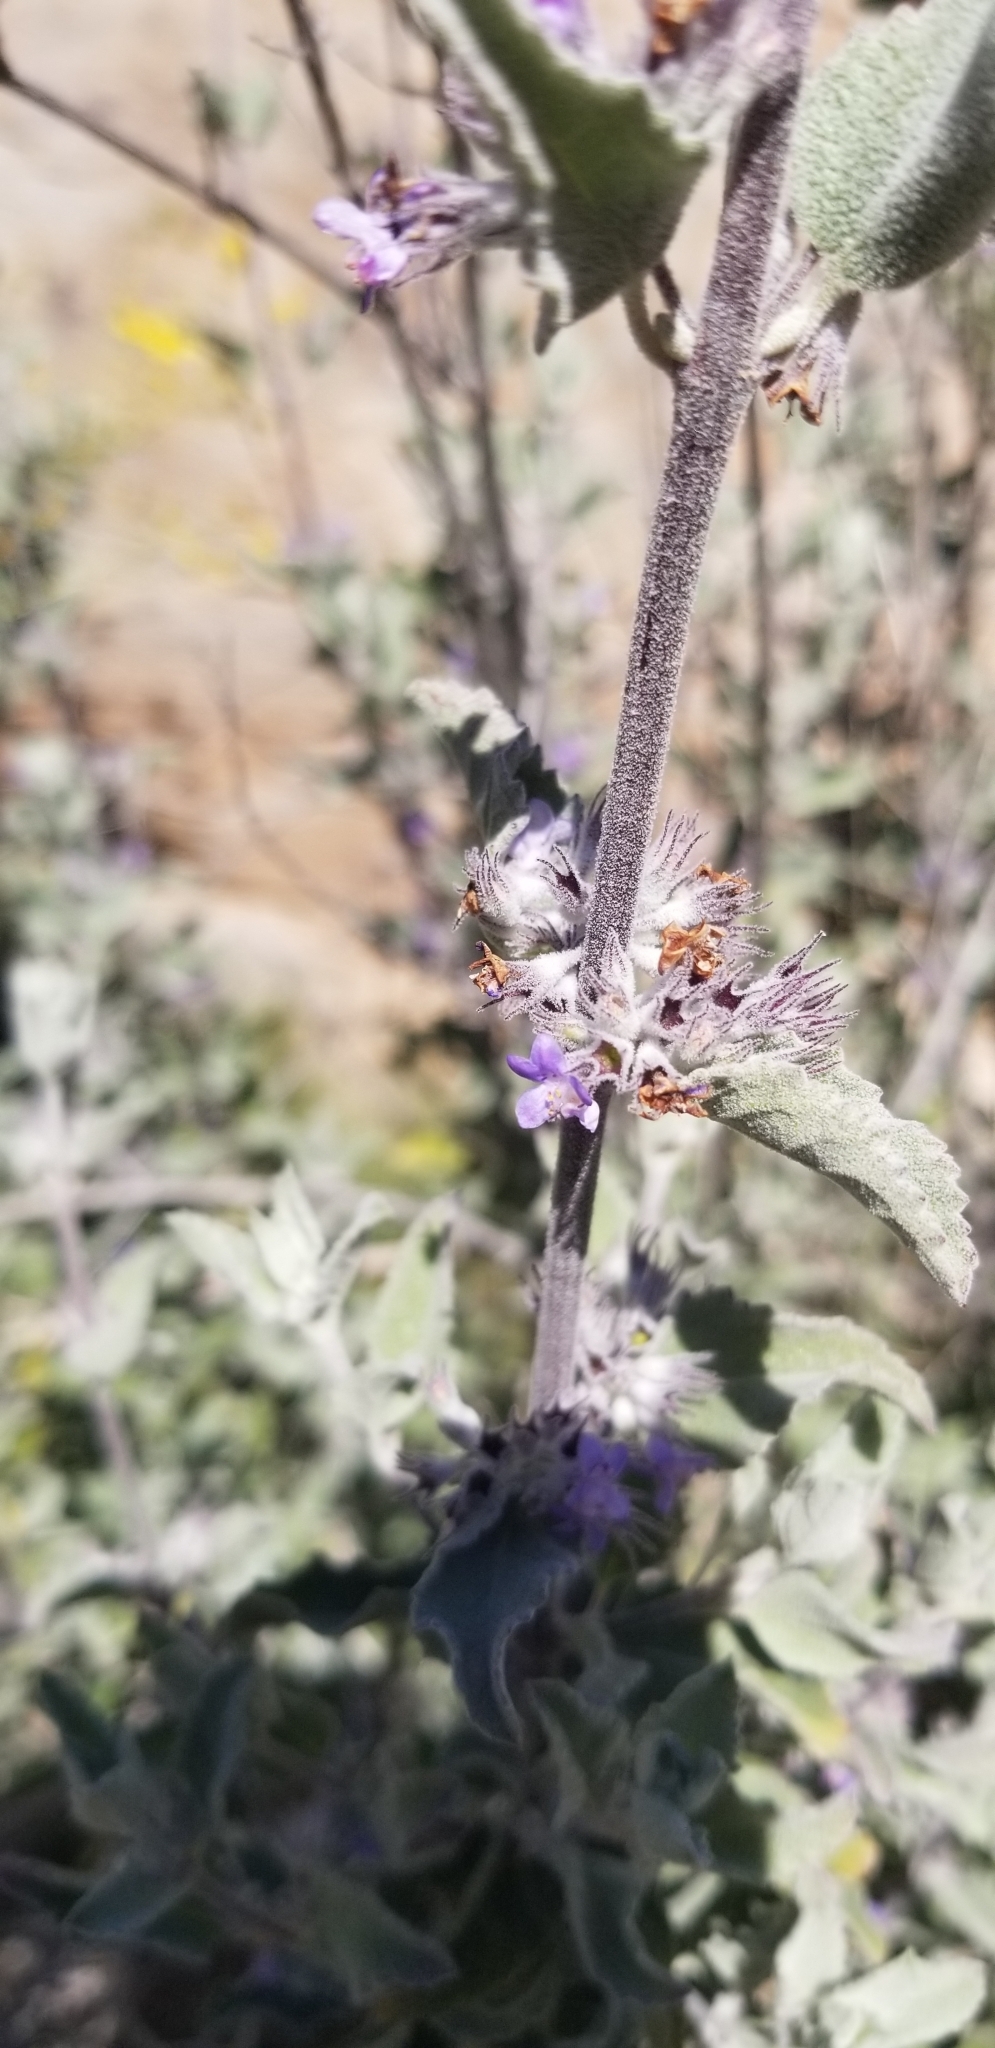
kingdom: Plantae
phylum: Tracheophyta
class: Magnoliopsida
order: Lamiales
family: Lamiaceae
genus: Condea
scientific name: Condea emoryi
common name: Chia
